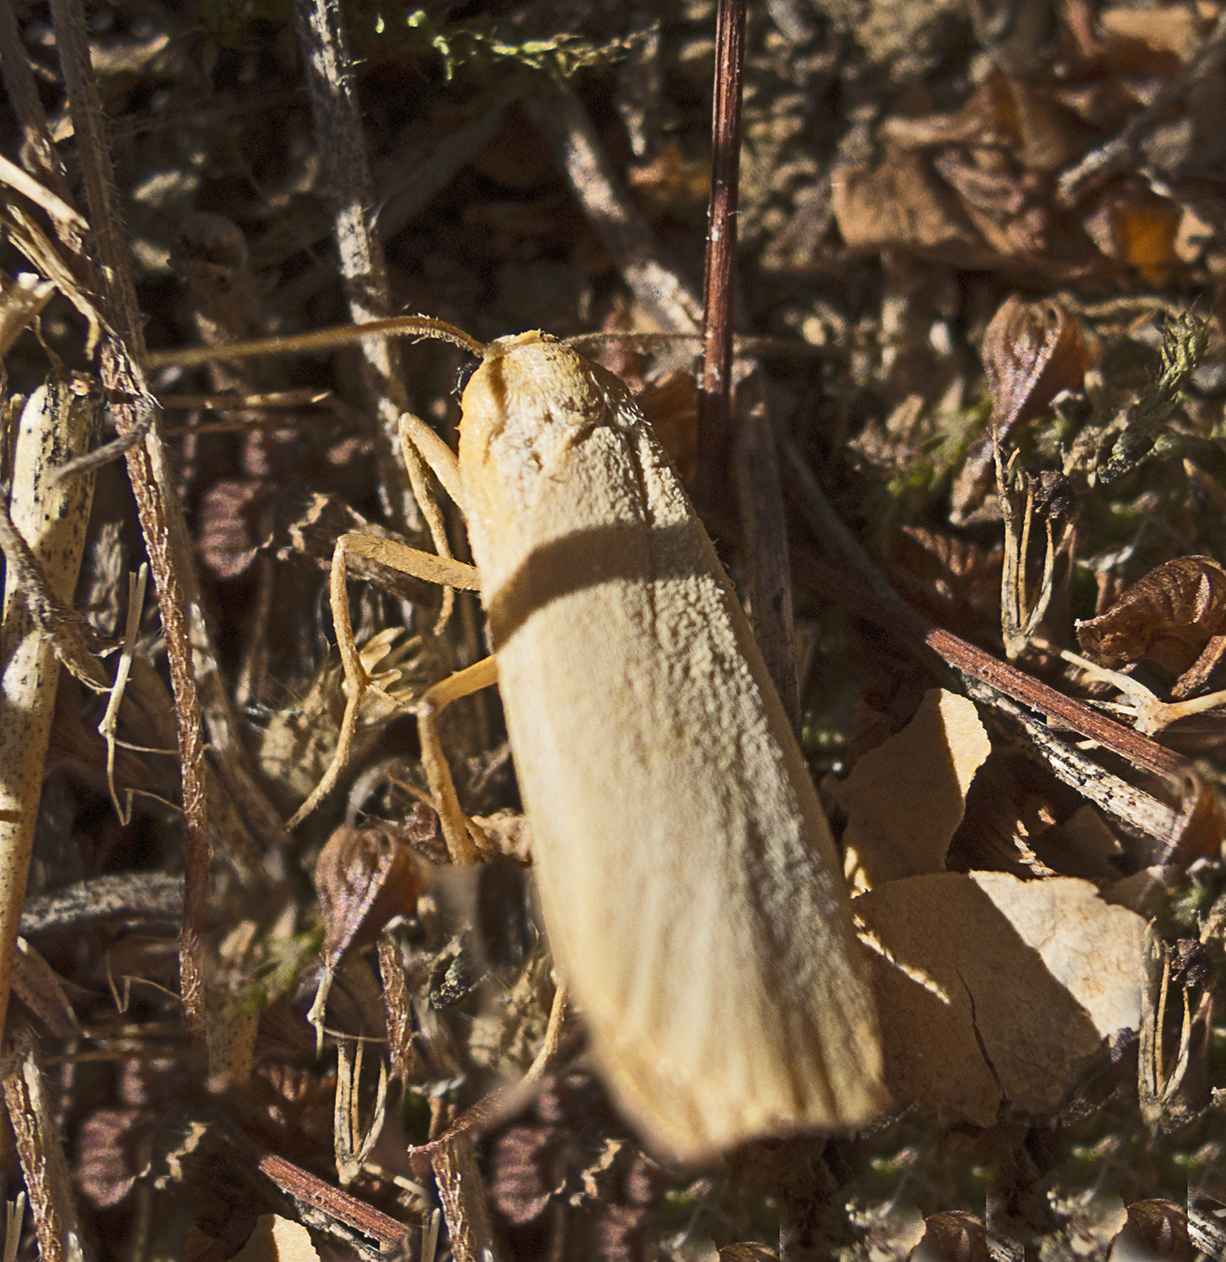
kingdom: Animalia
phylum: Arthropoda
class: Insecta
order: Lepidoptera
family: Erebidae
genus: Katha
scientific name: Katha depressa
